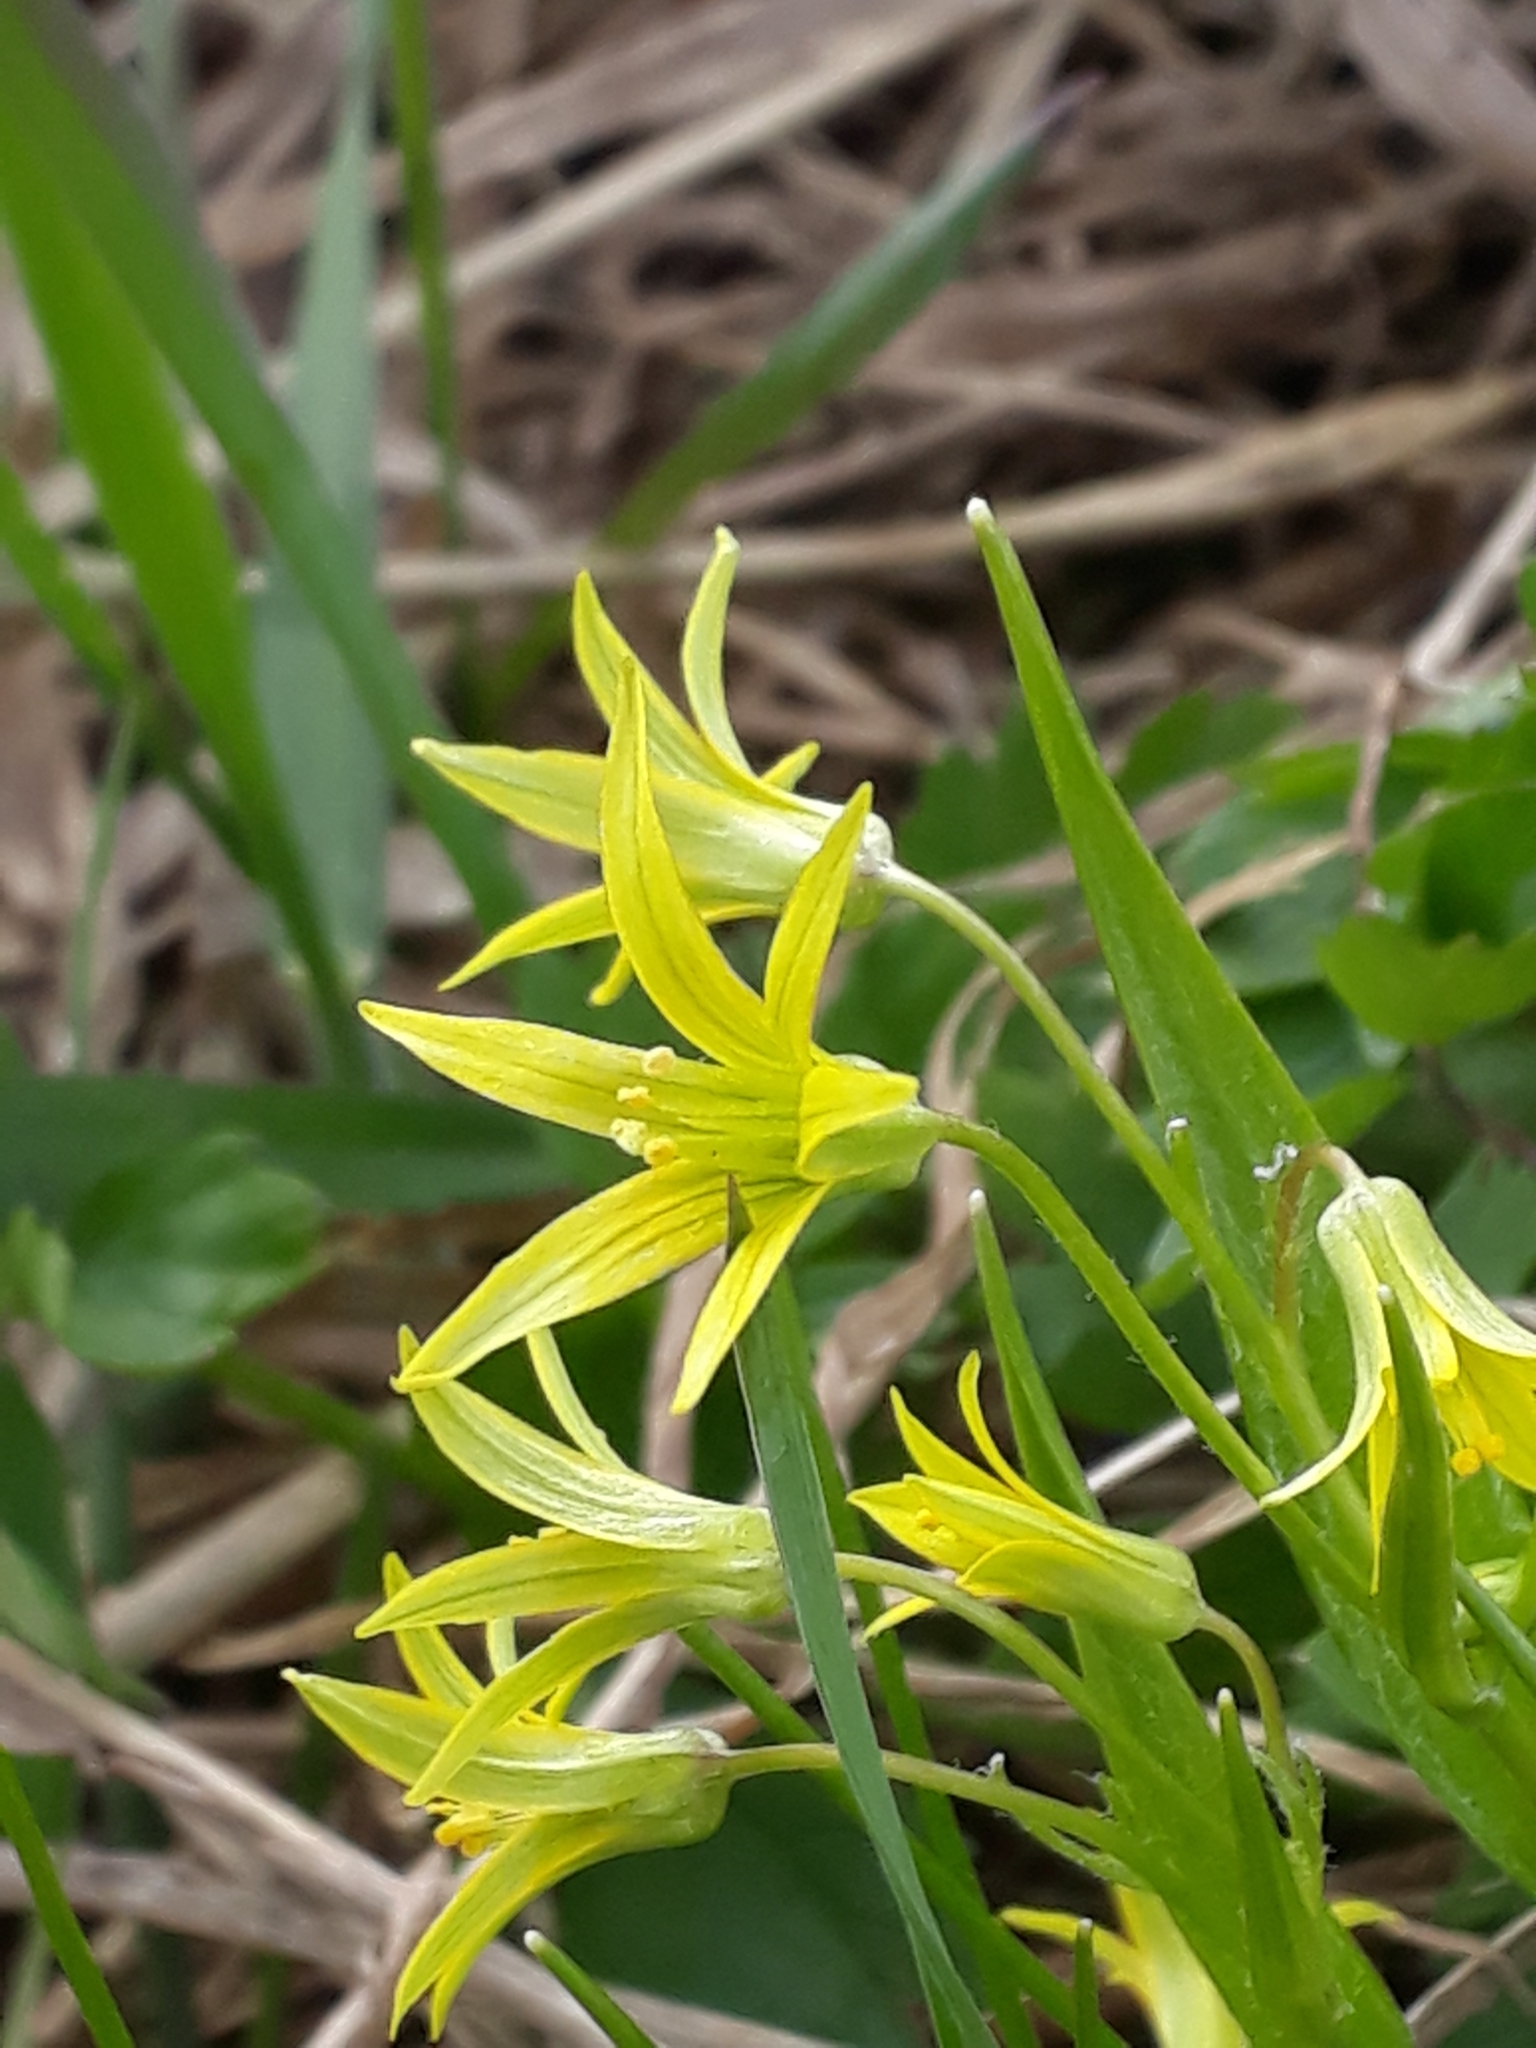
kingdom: Plantae
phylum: Tracheophyta
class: Liliopsida
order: Liliales
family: Liliaceae
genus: Gagea
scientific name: Gagea minima
